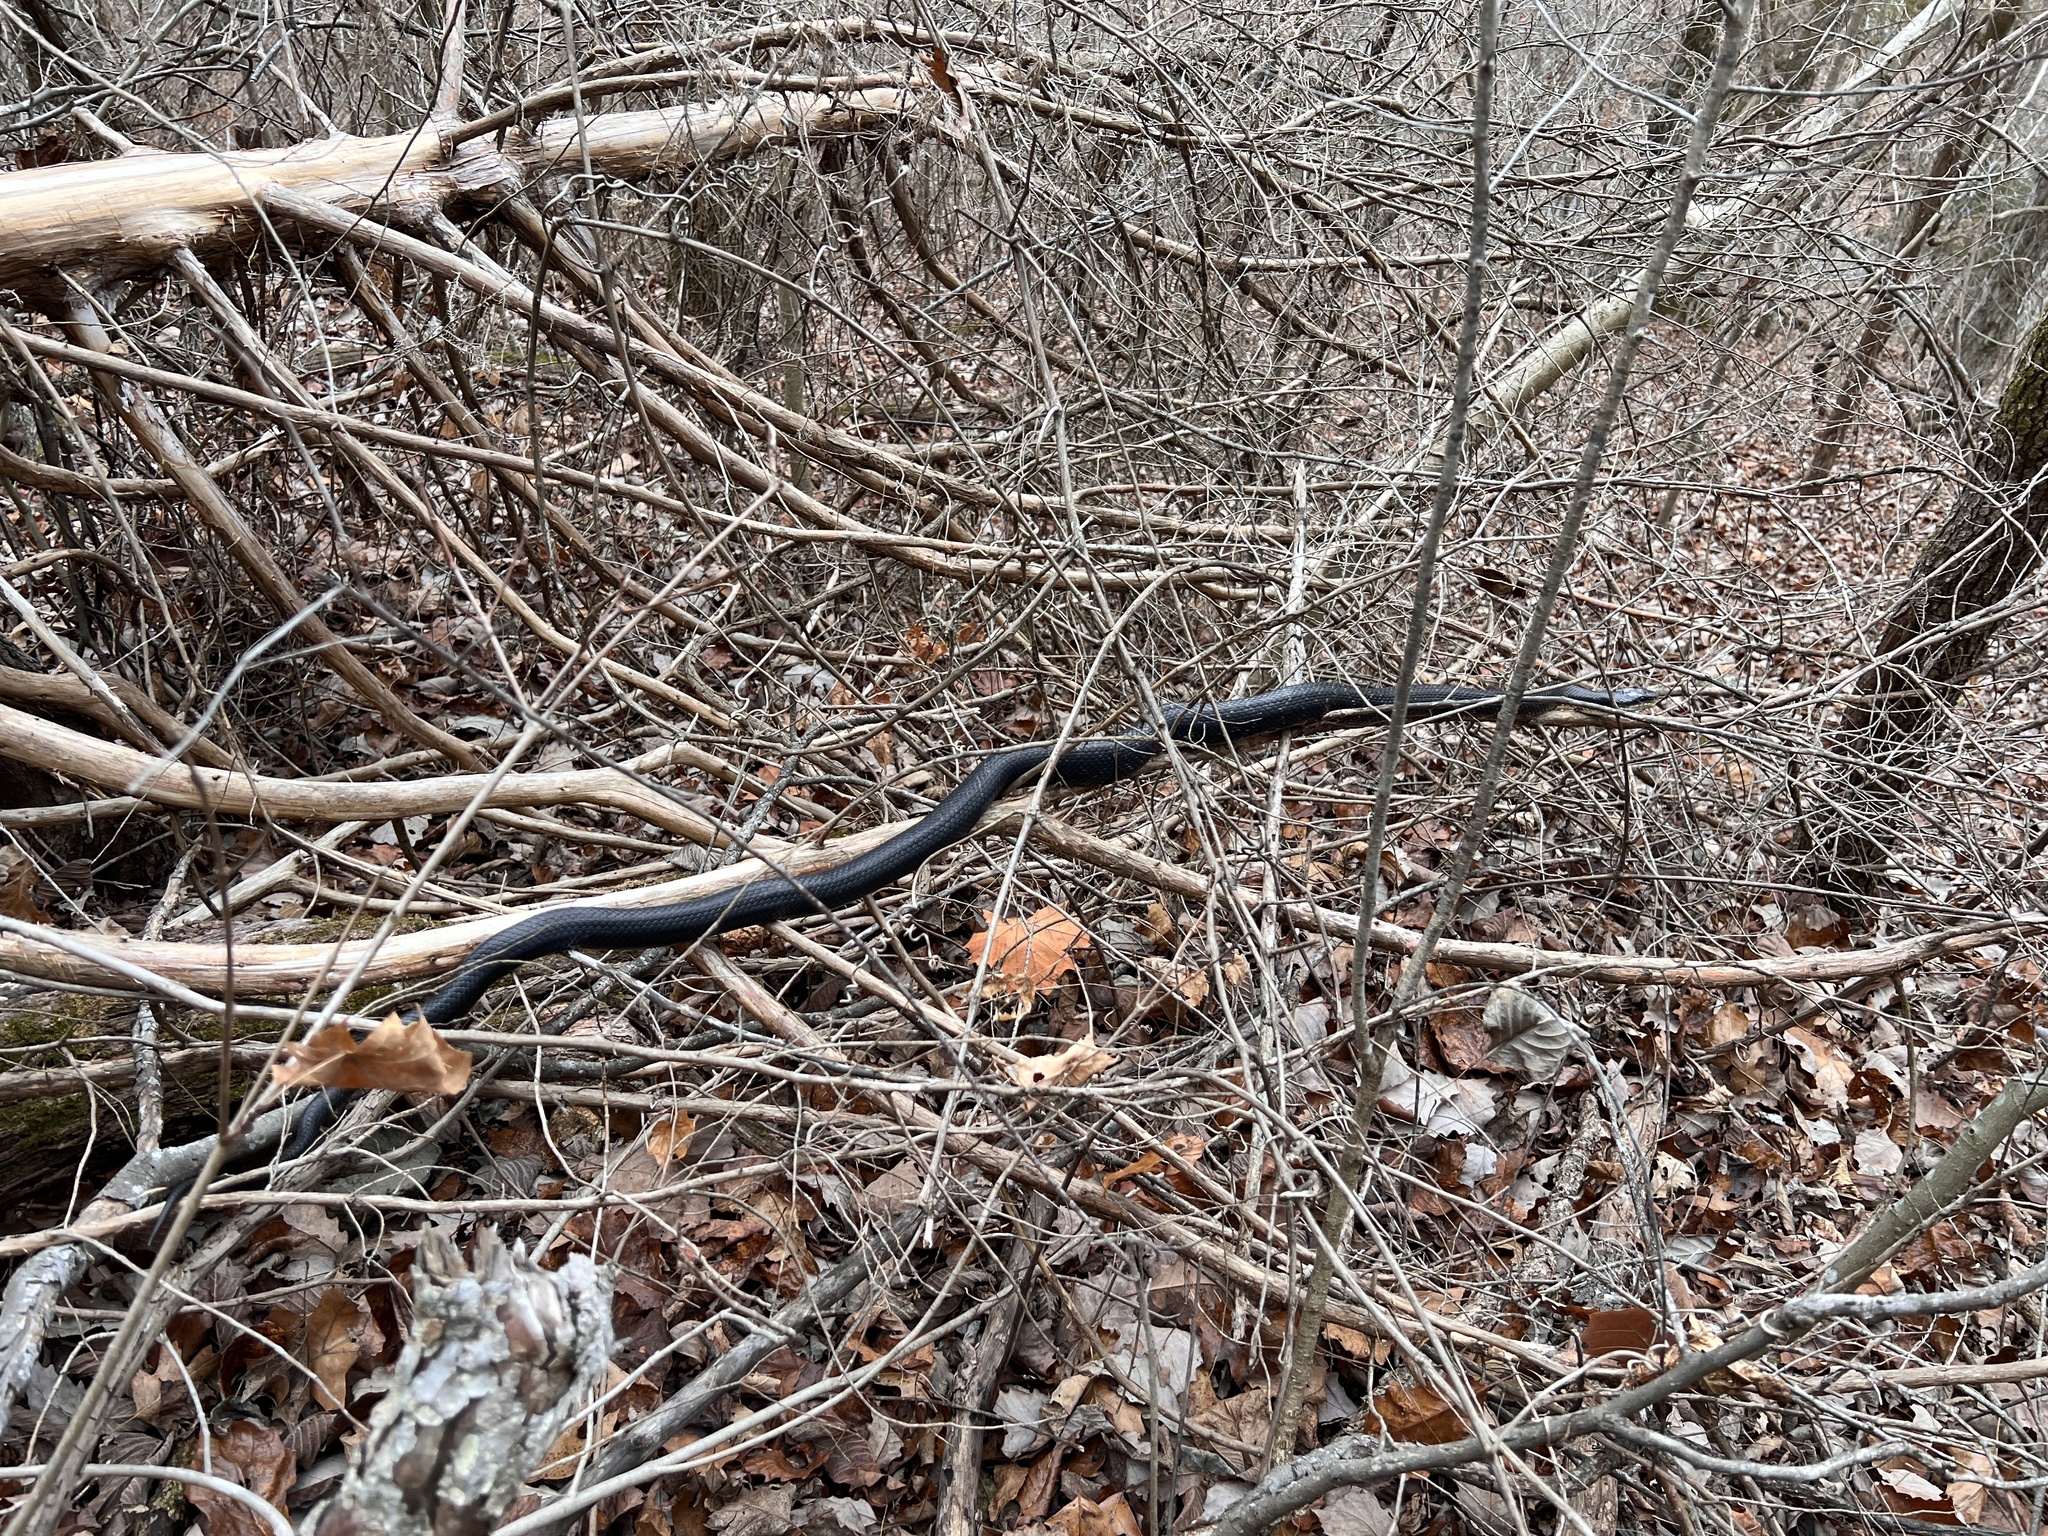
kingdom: Animalia
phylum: Chordata
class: Squamata
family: Colubridae
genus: Pantherophis
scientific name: Pantherophis obsoletus
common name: Black rat snake
